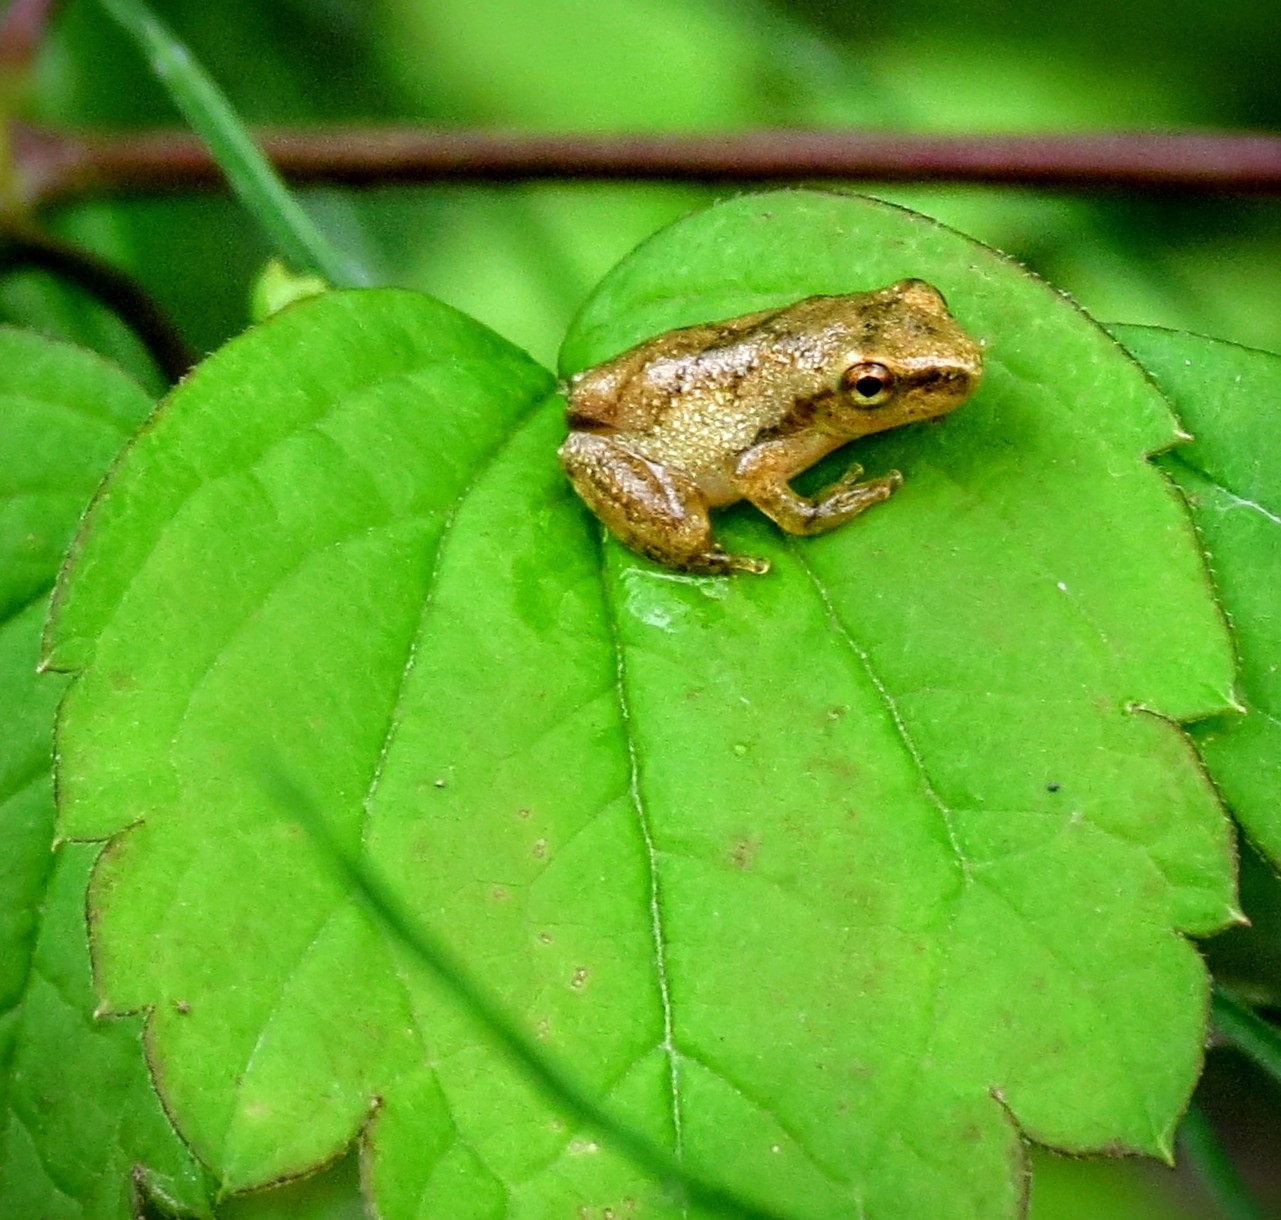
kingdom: Animalia
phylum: Chordata
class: Amphibia
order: Anura
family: Hylidae
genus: Pseudacris
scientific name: Pseudacris crucifer
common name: Spring peeper
